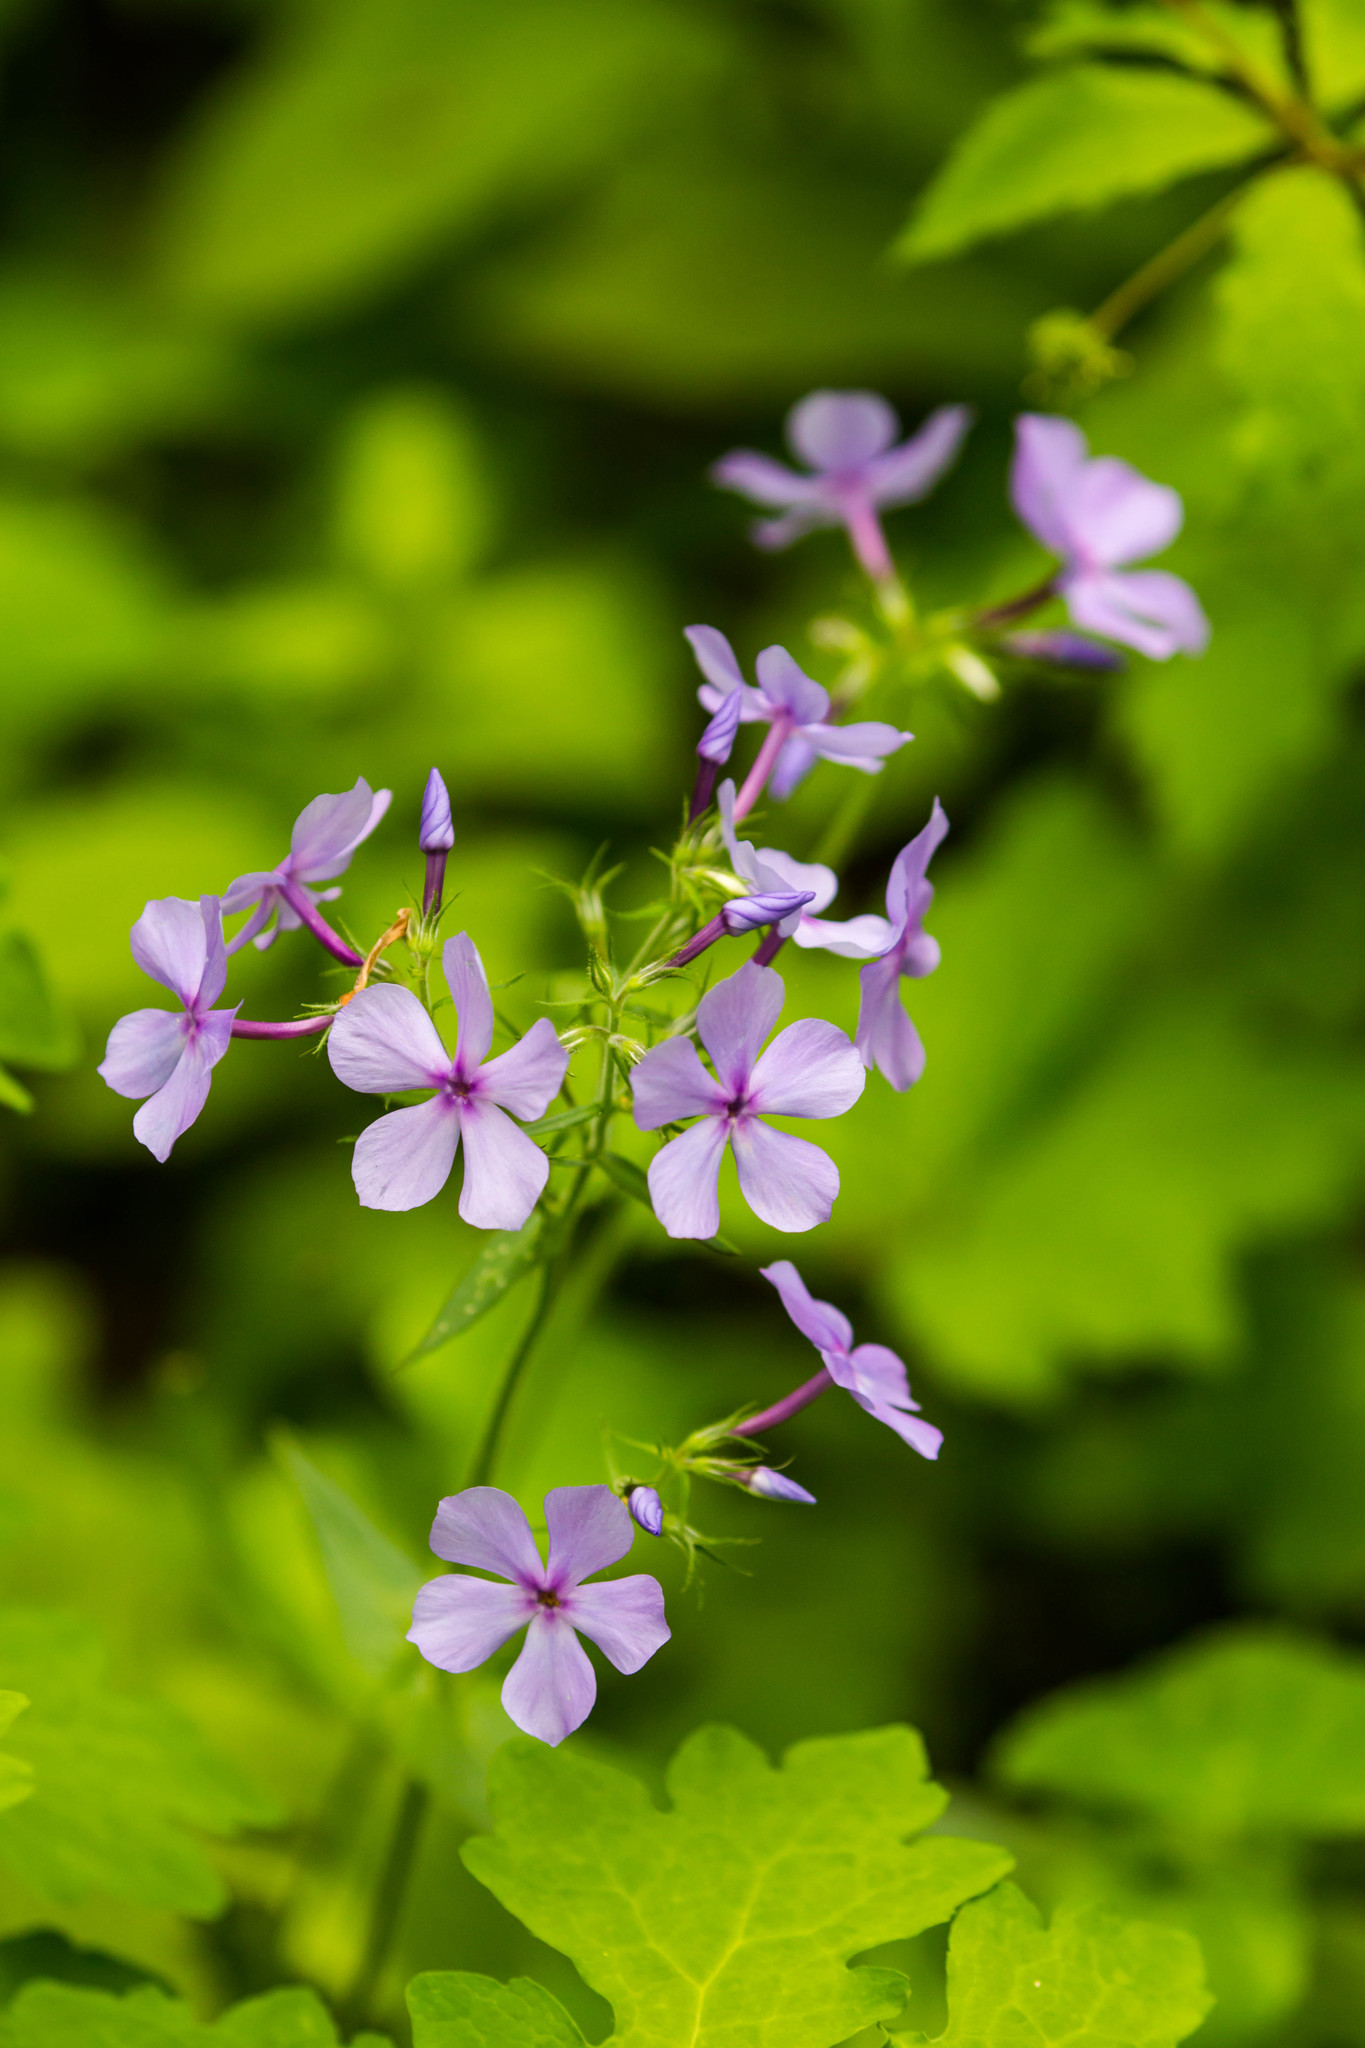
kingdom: Plantae
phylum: Tracheophyta
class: Magnoliopsida
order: Ericales
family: Polemoniaceae
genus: Phlox
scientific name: Phlox divaricata
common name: Blue phlox
